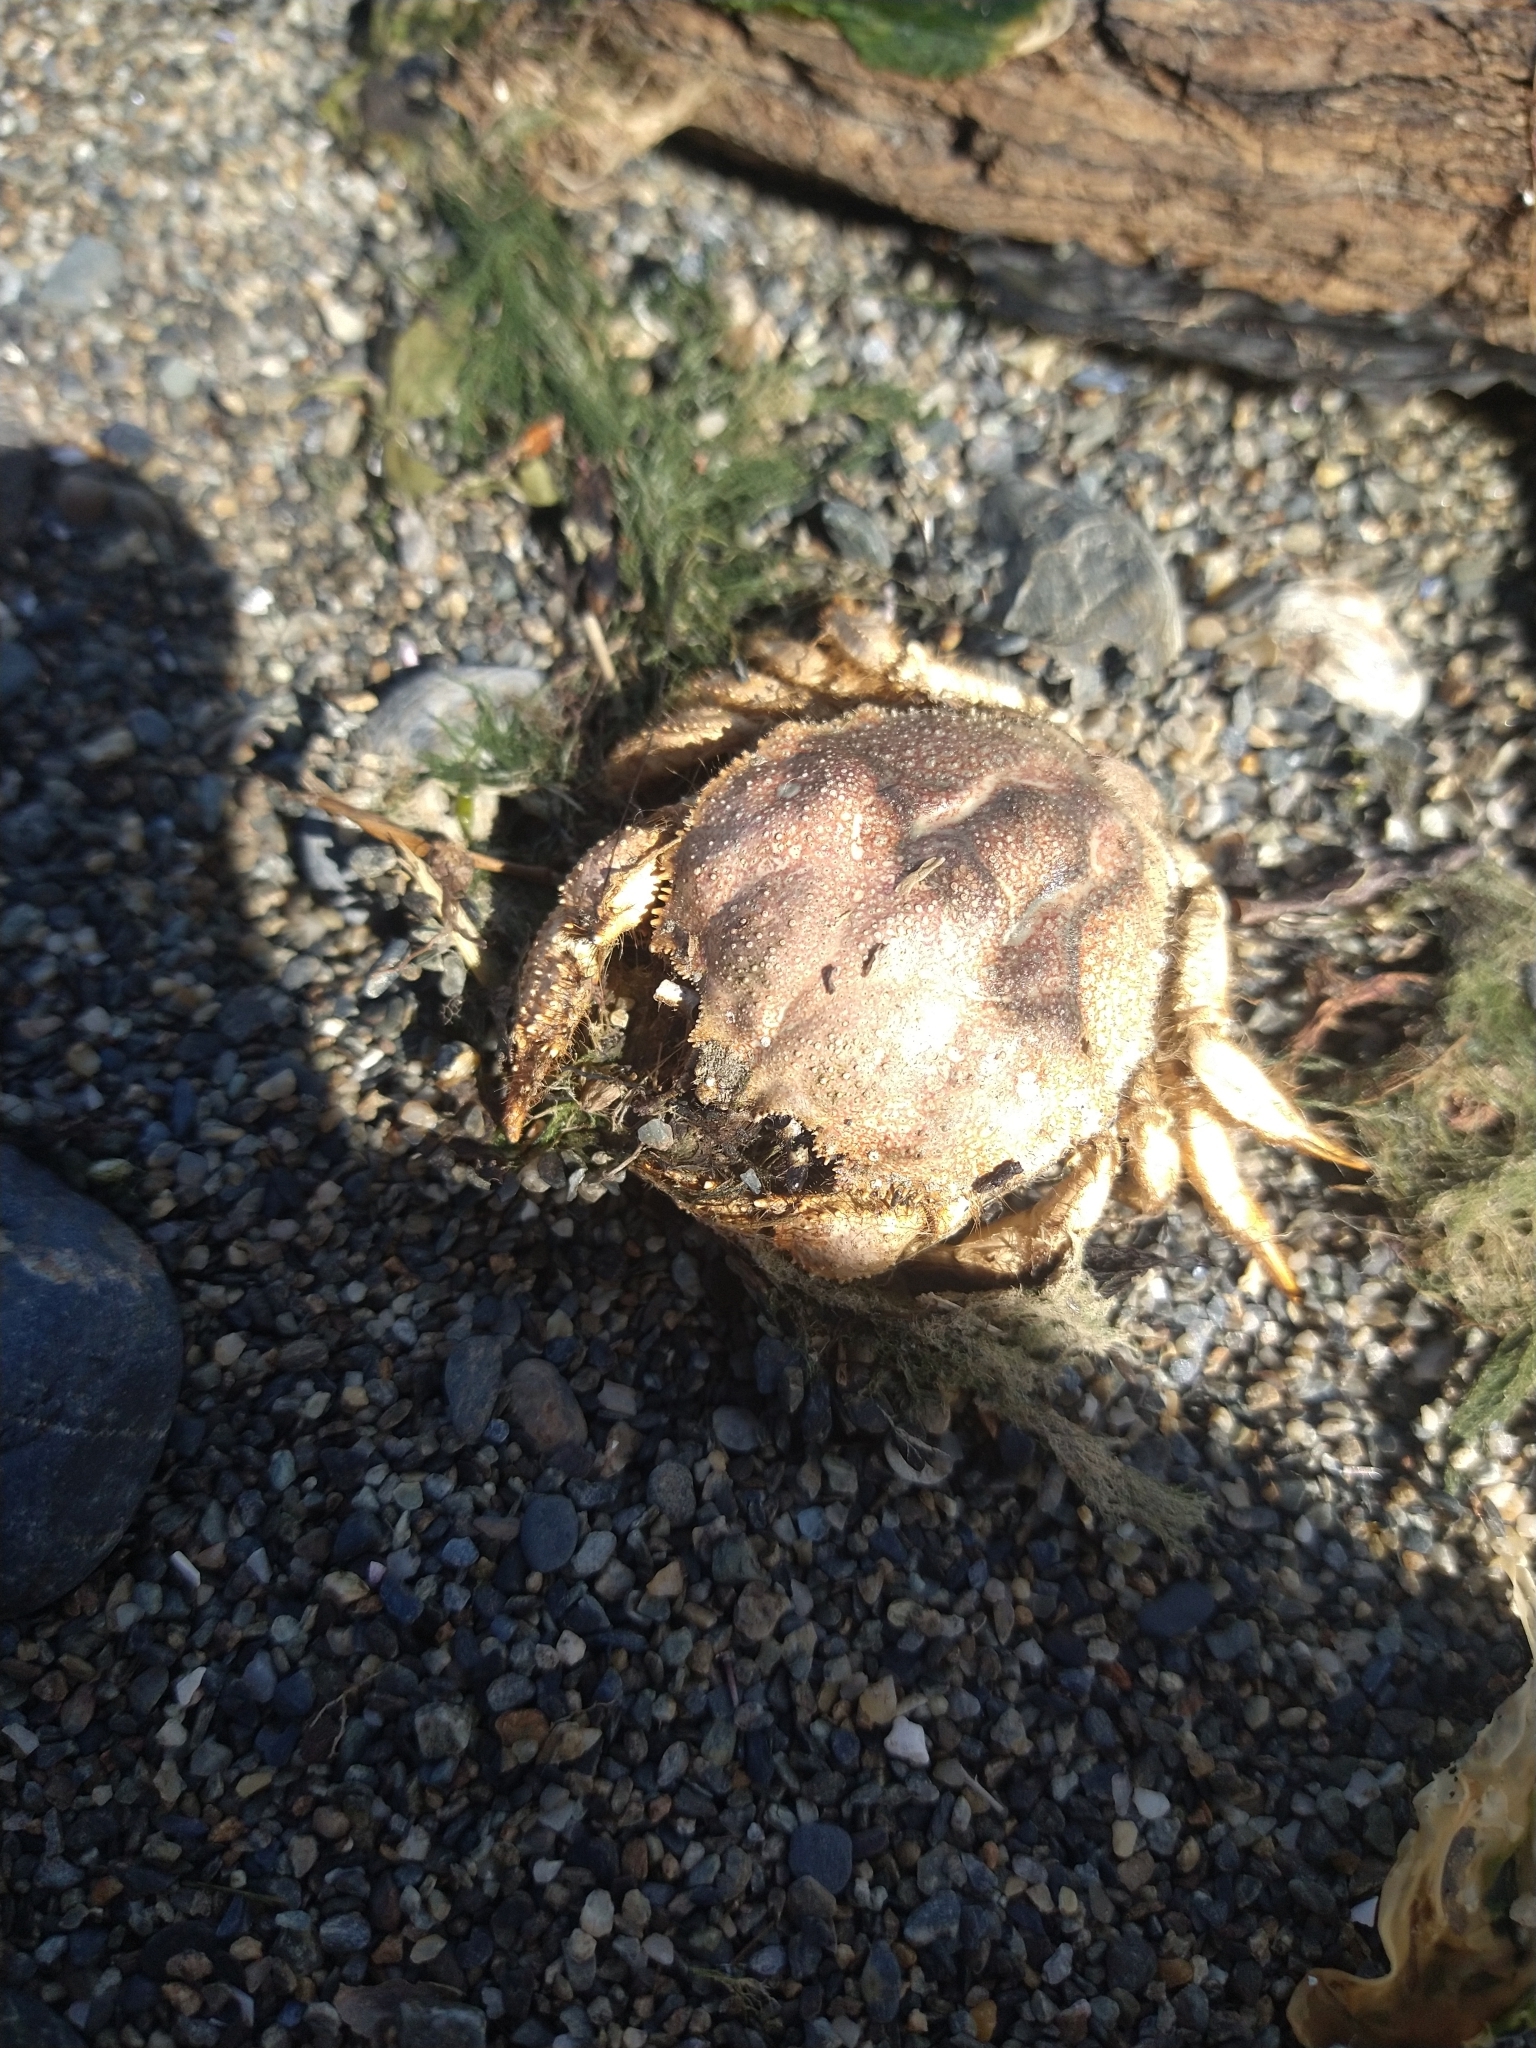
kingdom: Animalia
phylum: Arthropoda
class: Malacostraca
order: Decapoda
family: Trichopeltariidae
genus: Peltarion
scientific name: Peltarion spinulosum
